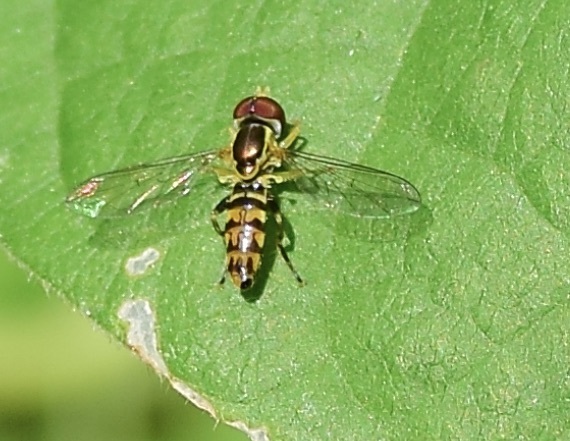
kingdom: Animalia
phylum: Arthropoda
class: Insecta
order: Diptera
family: Syrphidae
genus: Toxomerus
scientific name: Toxomerus geminatus
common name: Eastern calligrapher
